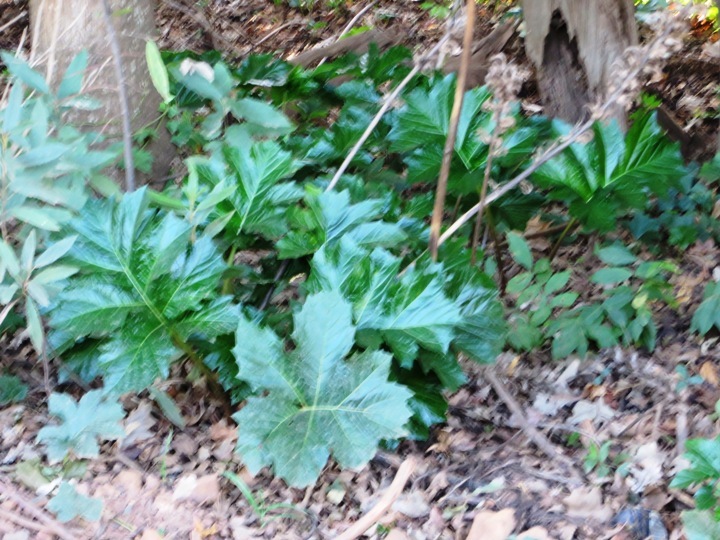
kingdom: Plantae
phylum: Tracheophyta
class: Magnoliopsida
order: Lamiales
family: Acanthaceae
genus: Acanthus
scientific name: Acanthus mollis
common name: Bear's-breech
